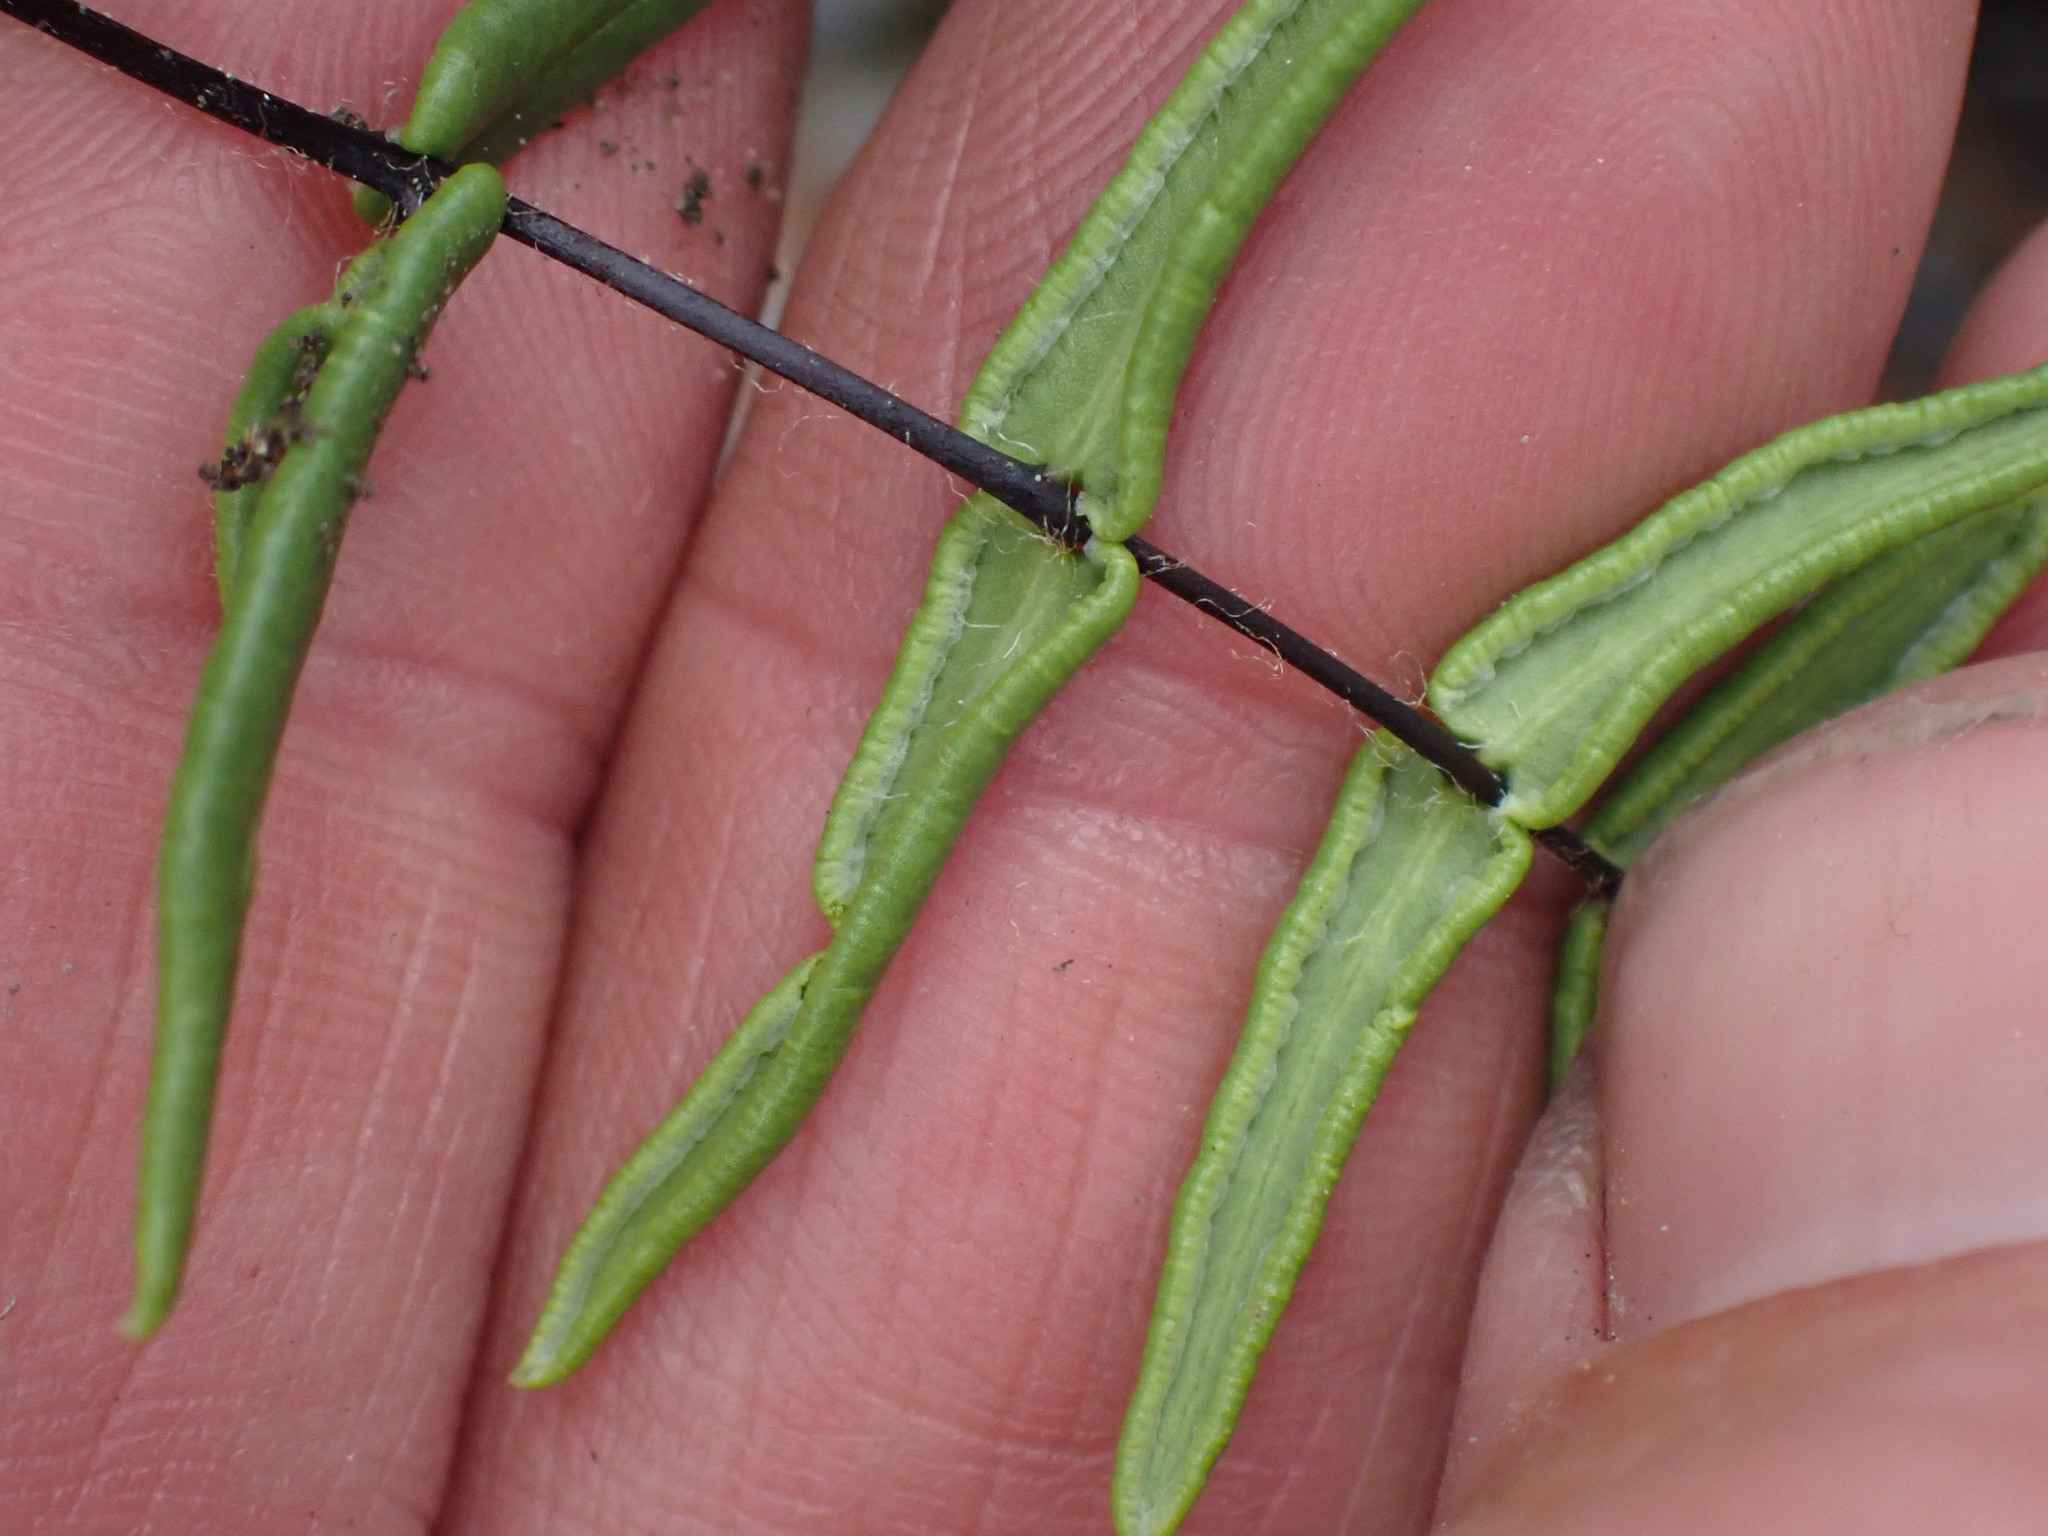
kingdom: Plantae
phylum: Tracheophyta
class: Polypodiopsida
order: Polypodiales
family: Pteridaceae
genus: Pellaea
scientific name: Pellaea gastonyi
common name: Gastony's cliffbrake
